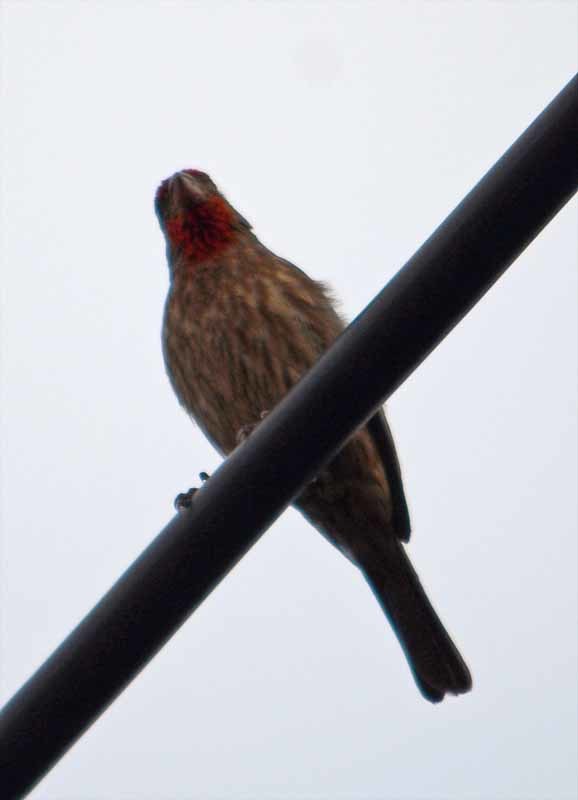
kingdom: Animalia
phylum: Chordata
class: Aves
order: Passeriformes
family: Fringillidae
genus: Haemorhous
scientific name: Haemorhous mexicanus
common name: House finch
